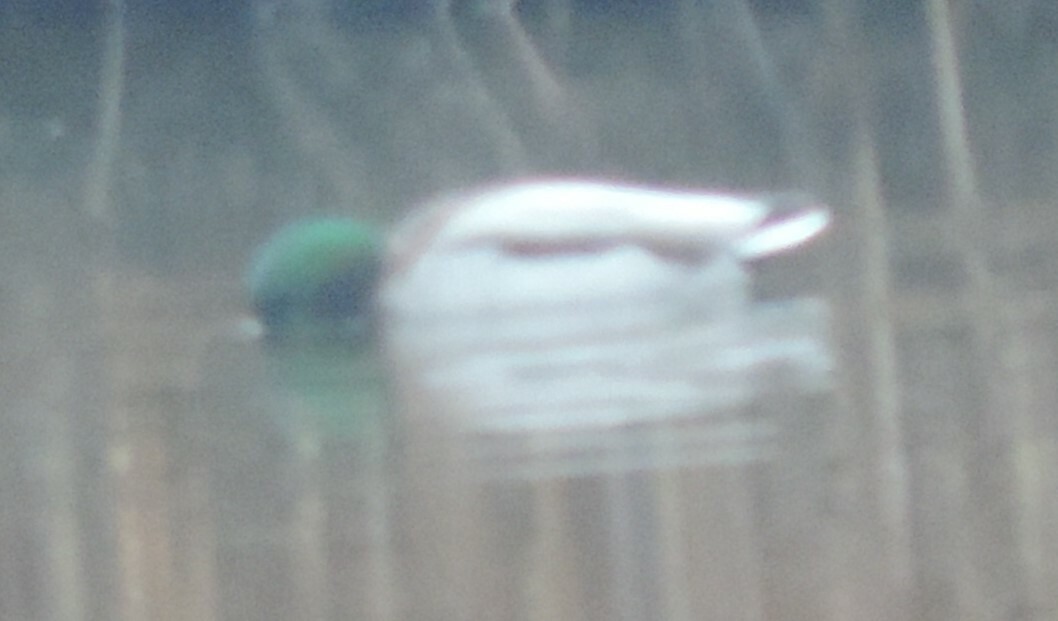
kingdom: Animalia
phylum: Chordata
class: Aves
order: Anseriformes
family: Anatidae
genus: Anas
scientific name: Anas platyrhynchos
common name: Mallard
